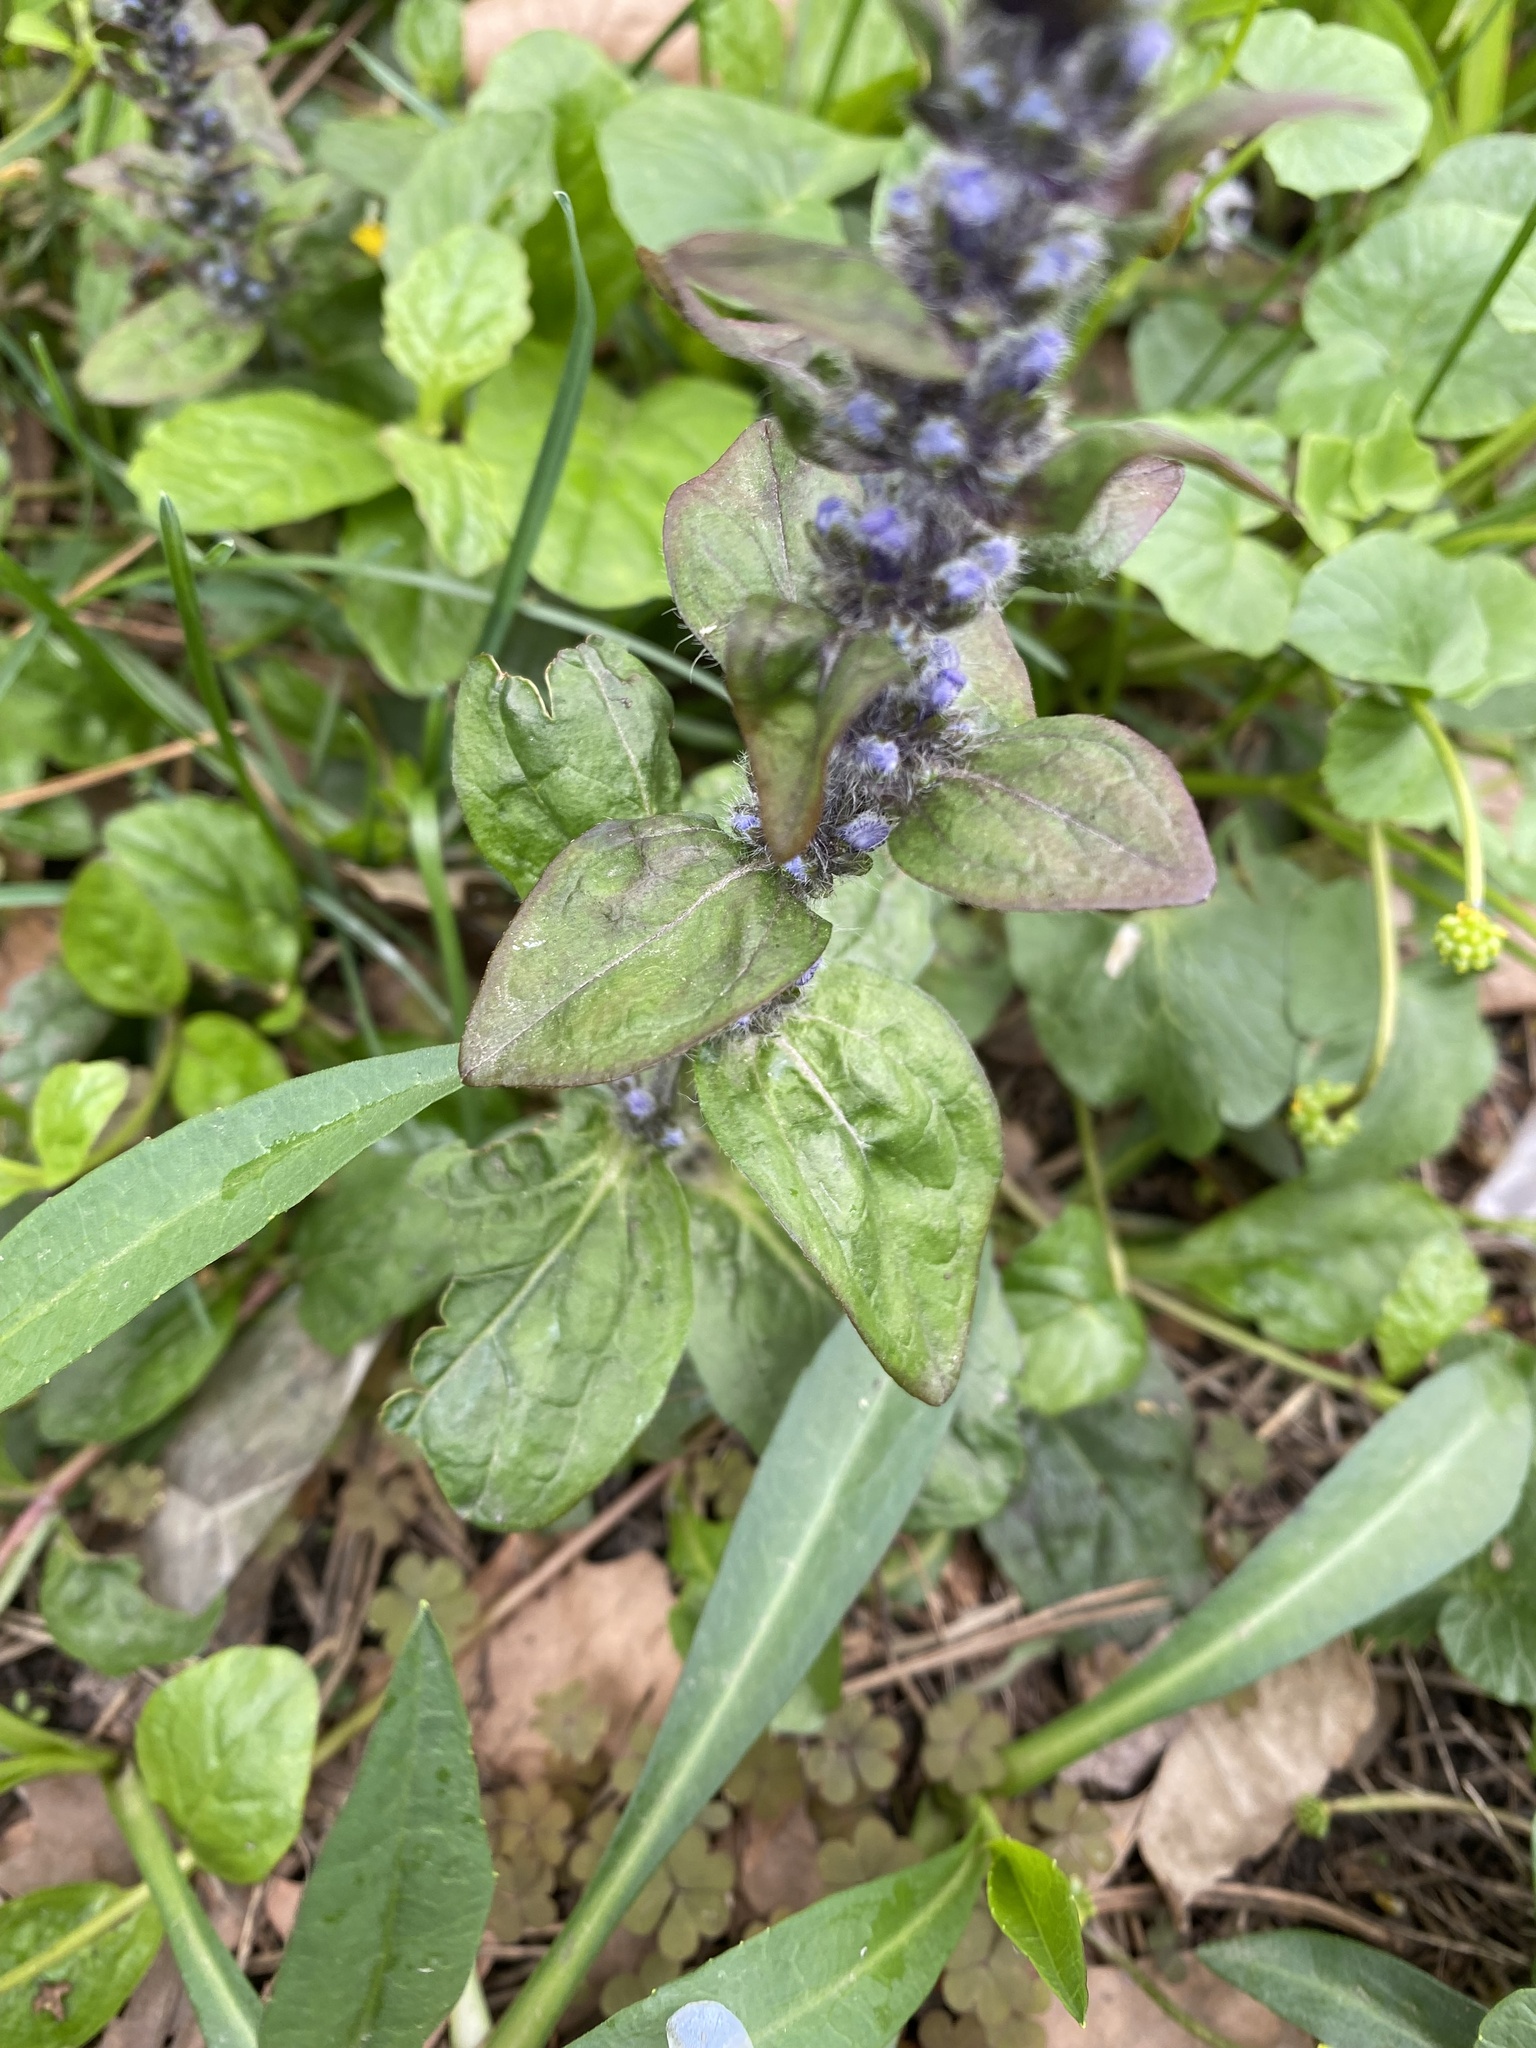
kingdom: Plantae
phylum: Tracheophyta
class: Magnoliopsida
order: Lamiales
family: Lamiaceae
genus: Ajuga
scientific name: Ajuga reptans
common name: Bugle
